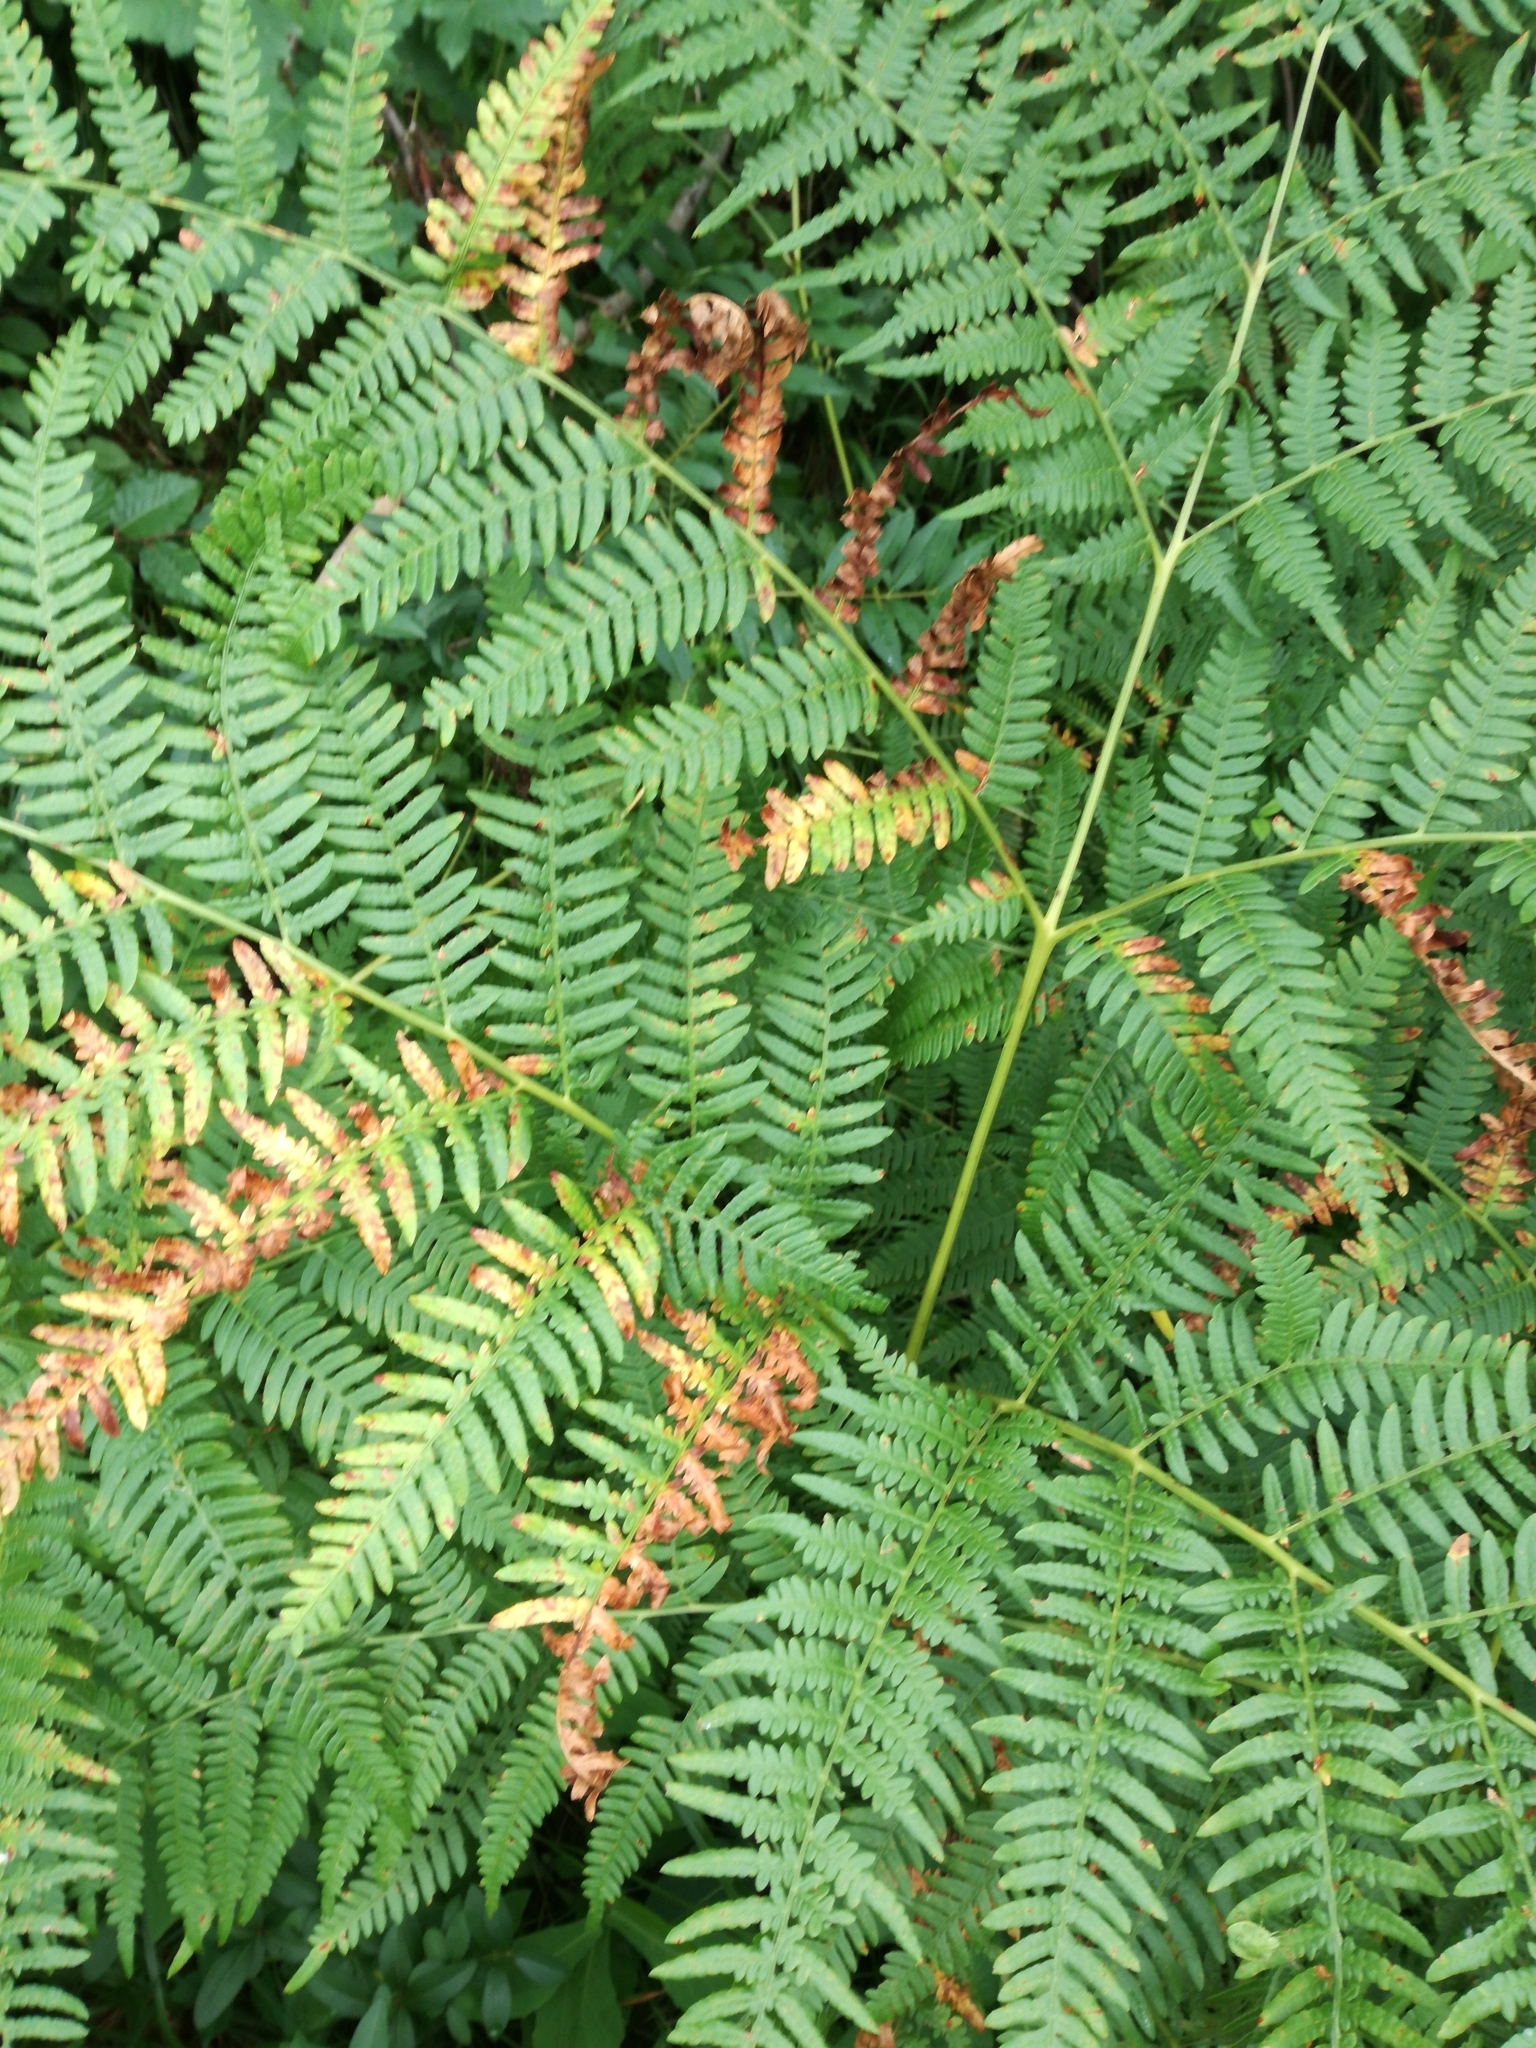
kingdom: Plantae
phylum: Tracheophyta
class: Polypodiopsida
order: Polypodiales
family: Dennstaedtiaceae
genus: Pteridium
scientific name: Pteridium aquilinum
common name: Bracken
